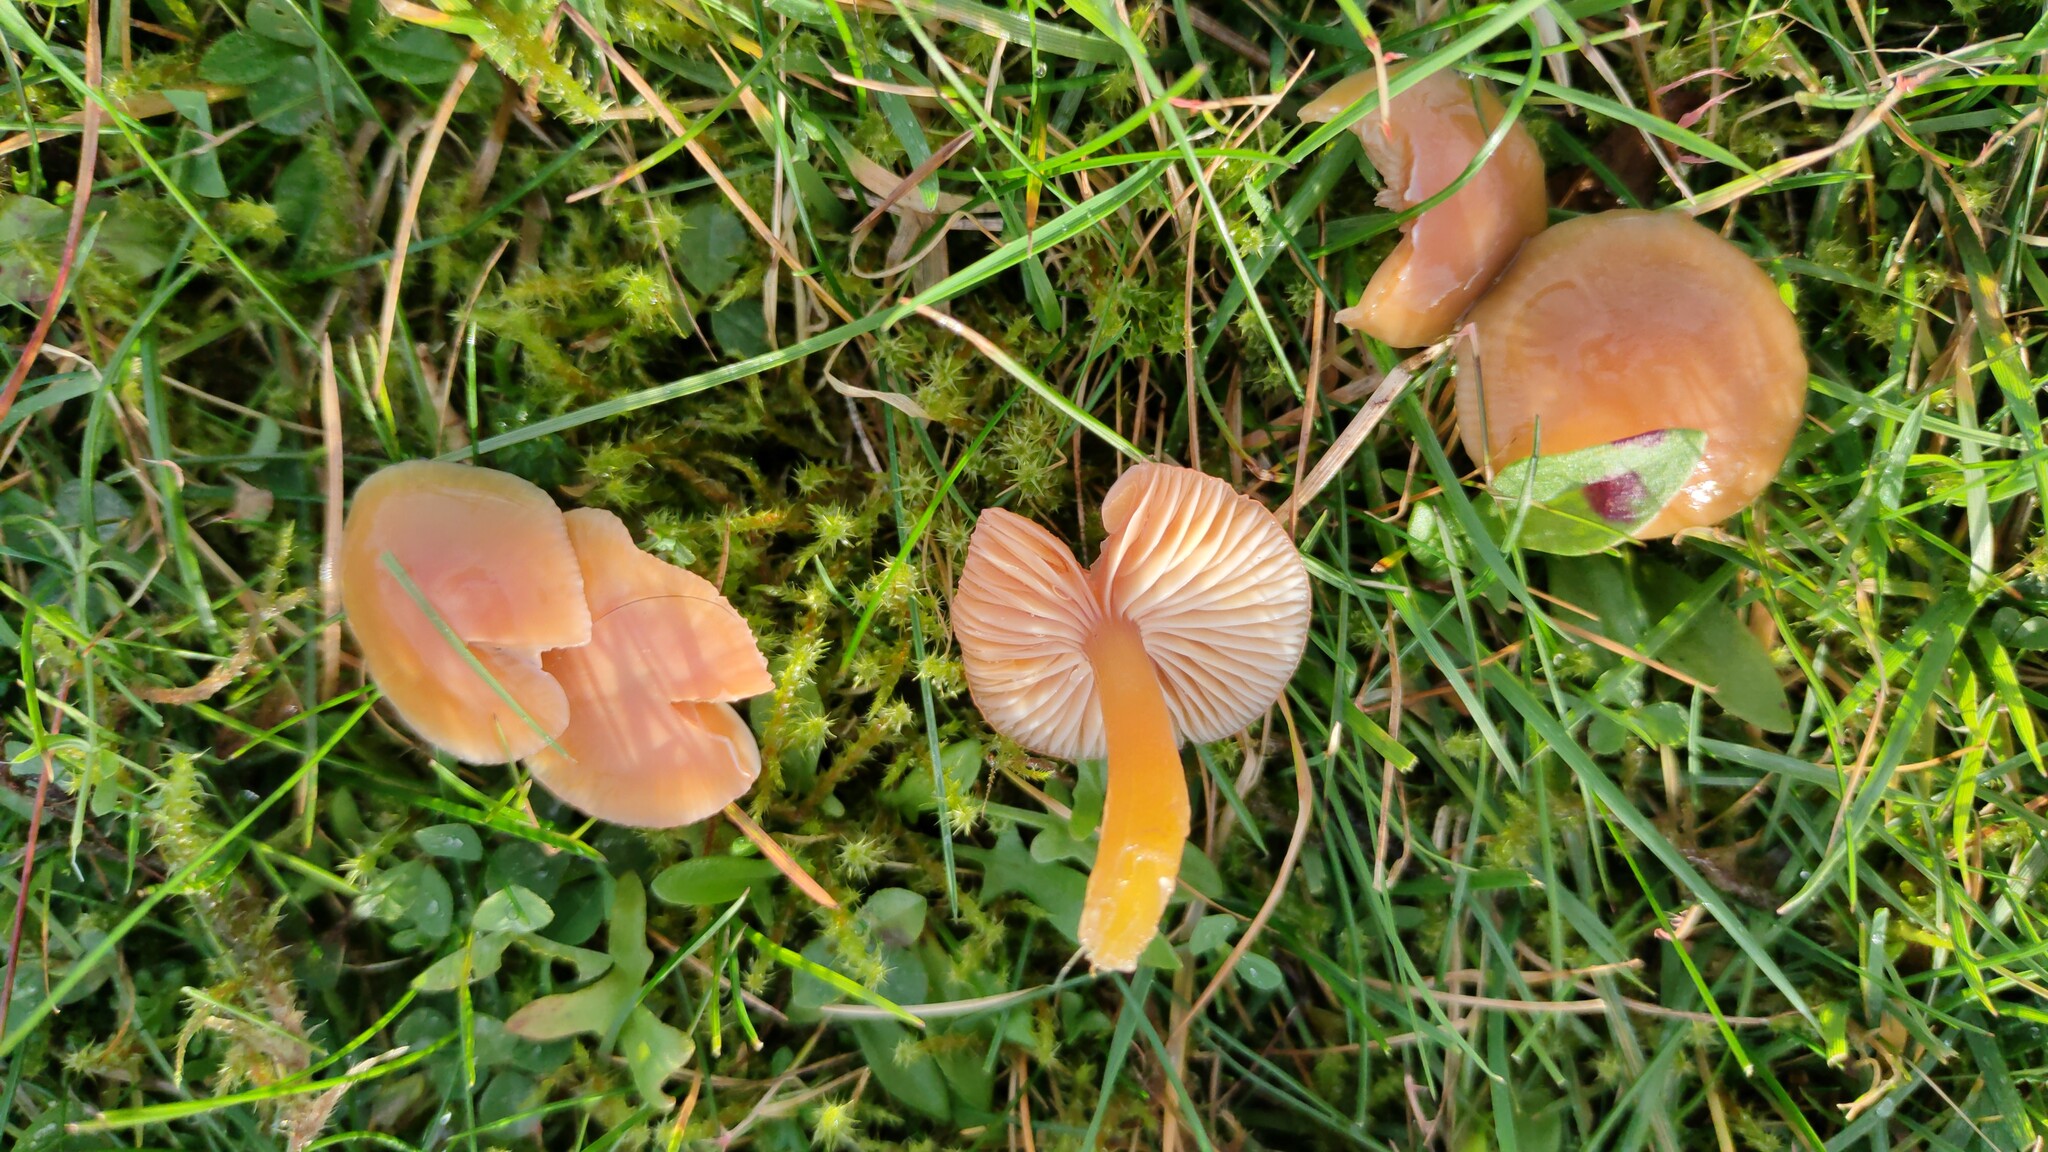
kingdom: Fungi
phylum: Basidiomycota
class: Agaricomycetes
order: Agaricales
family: Hygrophoraceae
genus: Gliophorus
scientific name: Gliophorus laetus
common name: Heath waxcap
